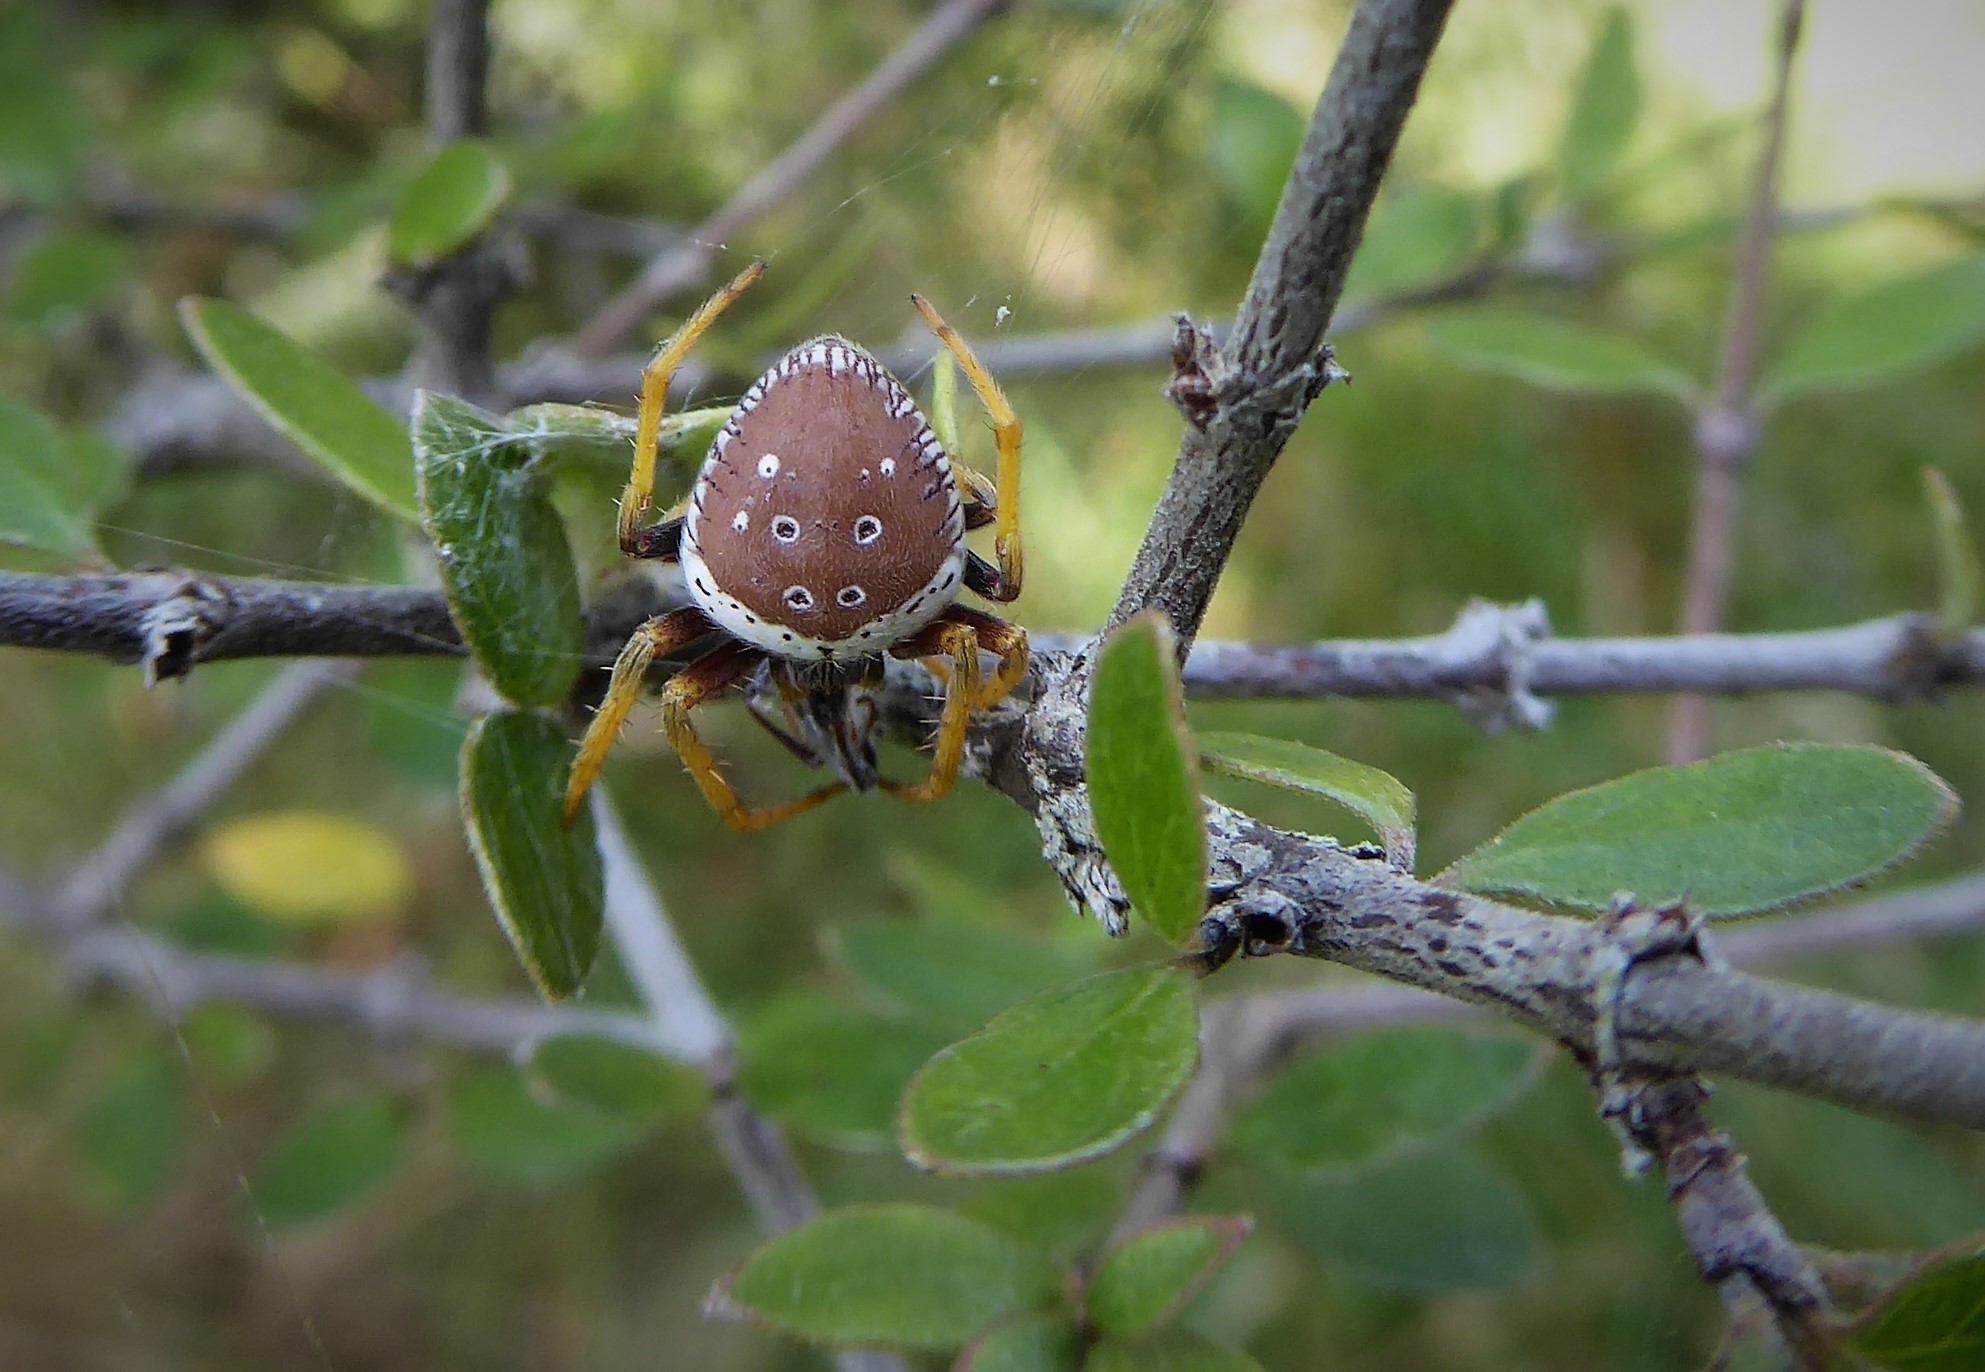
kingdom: Animalia
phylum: Arthropoda
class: Arachnida
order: Araneae
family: Araneidae
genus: Zealaranea
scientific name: Zealaranea prina
